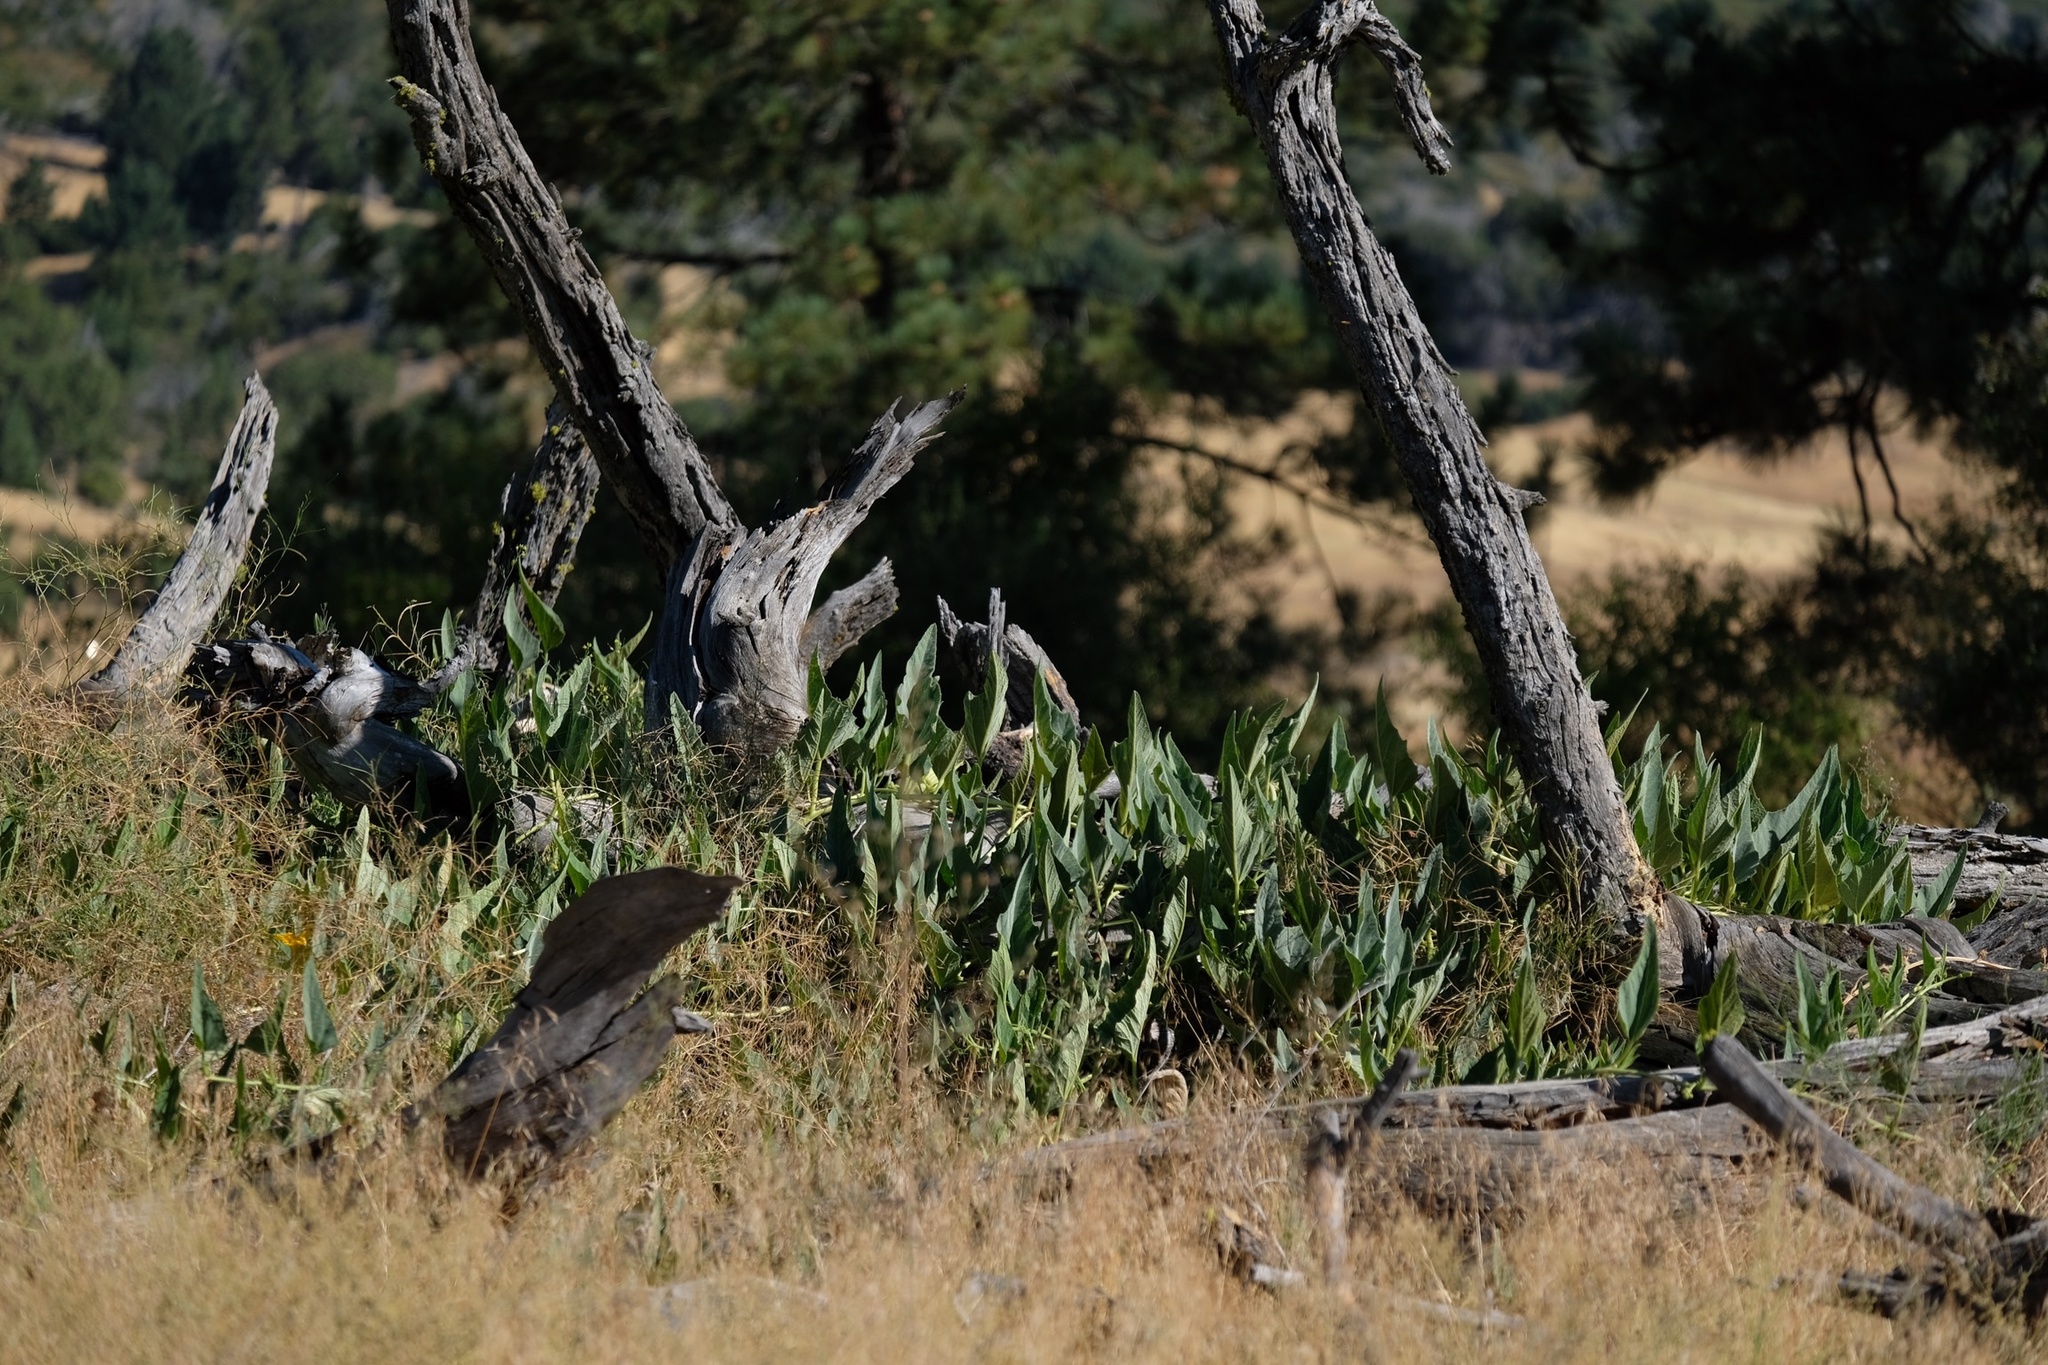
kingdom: Plantae
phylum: Tracheophyta
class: Magnoliopsida
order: Cucurbitales
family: Cucurbitaceae
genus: Cucurbita
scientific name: Cucurbita foetidissima
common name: Buffalo gourd
